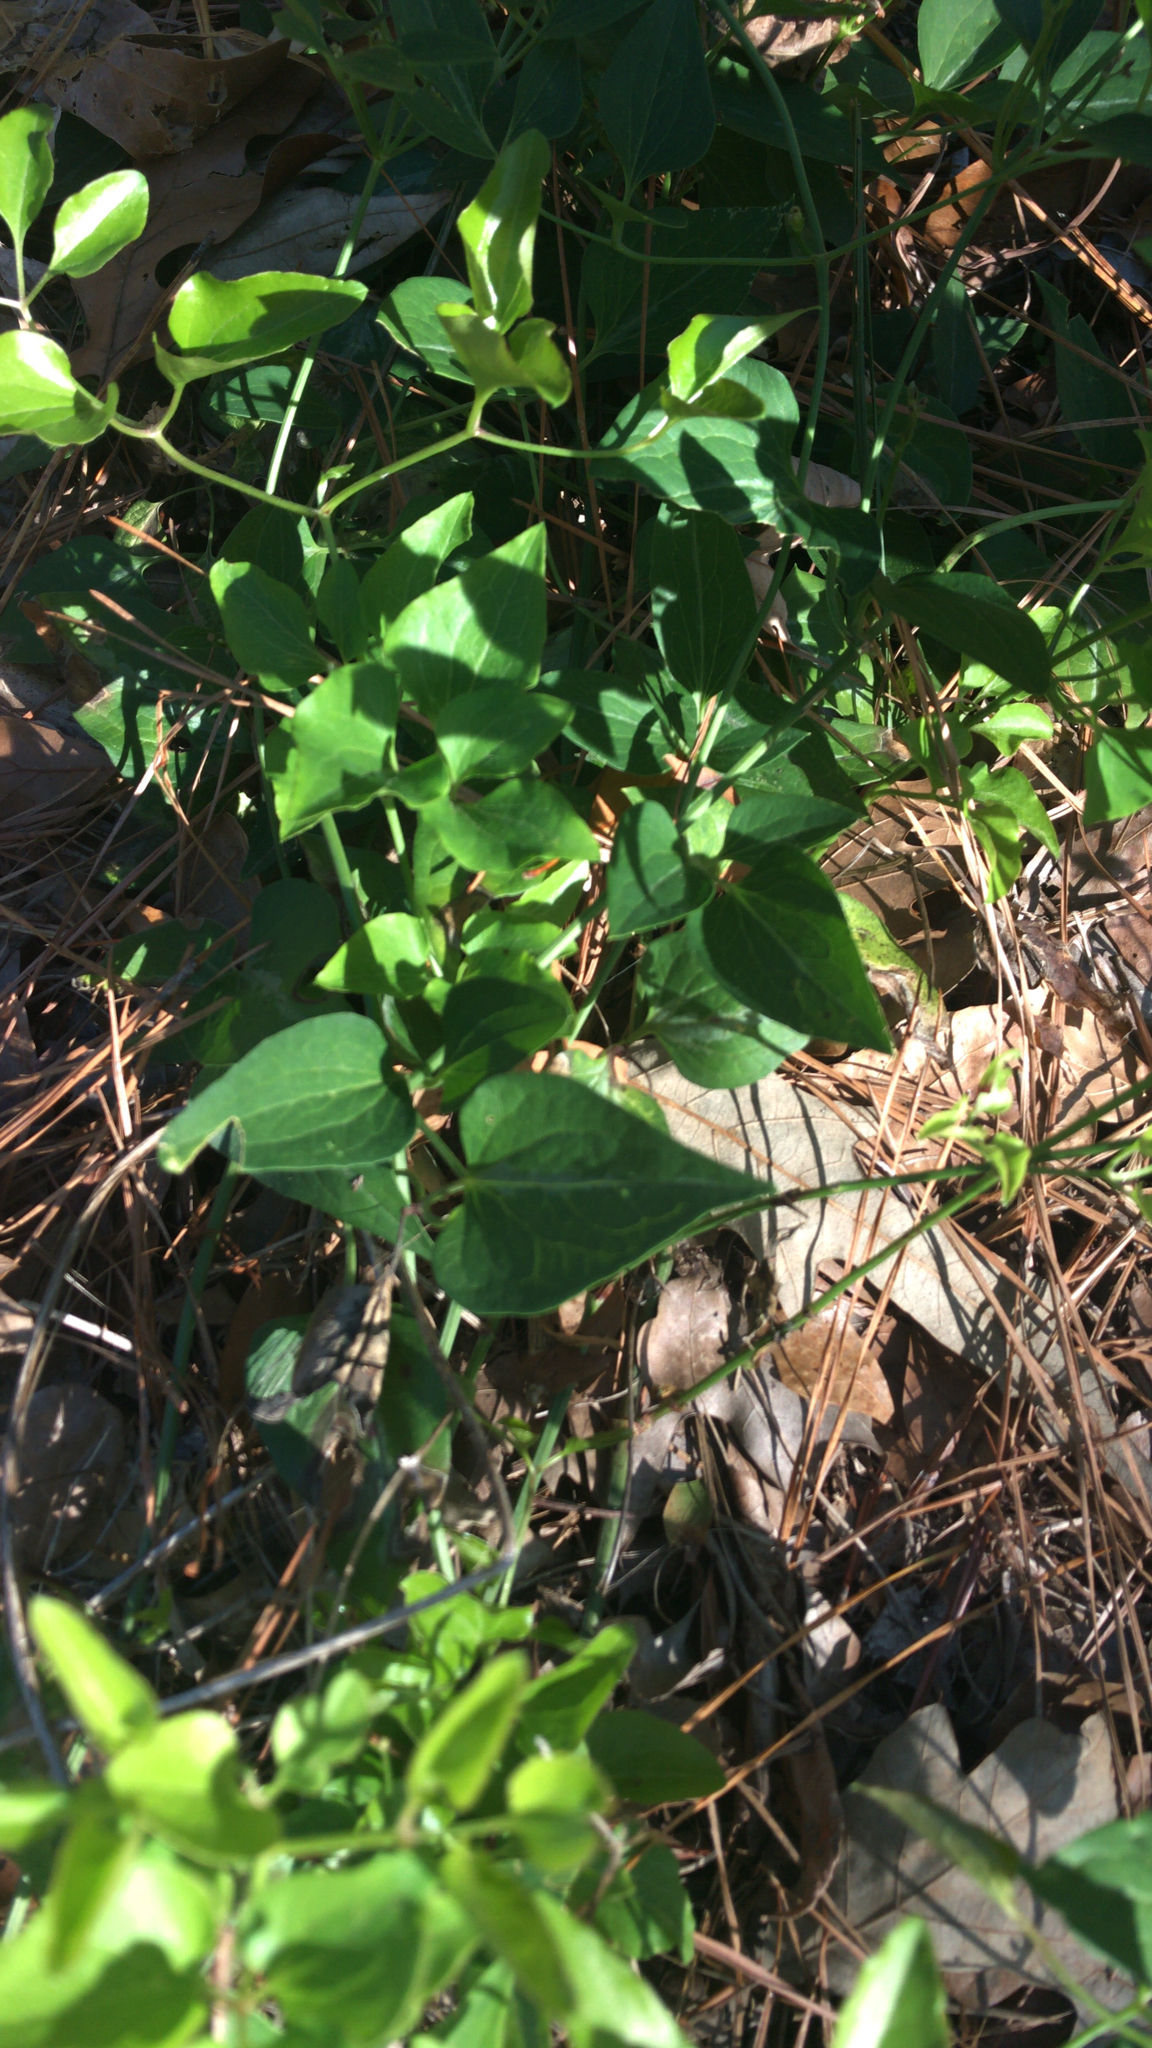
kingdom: Plantae
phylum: Tracheophyta
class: Magnoliopsida
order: Ranunculales
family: Ranunculaceae
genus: Clematis
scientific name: Clematis terniflora
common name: Sweet autumn clematis
